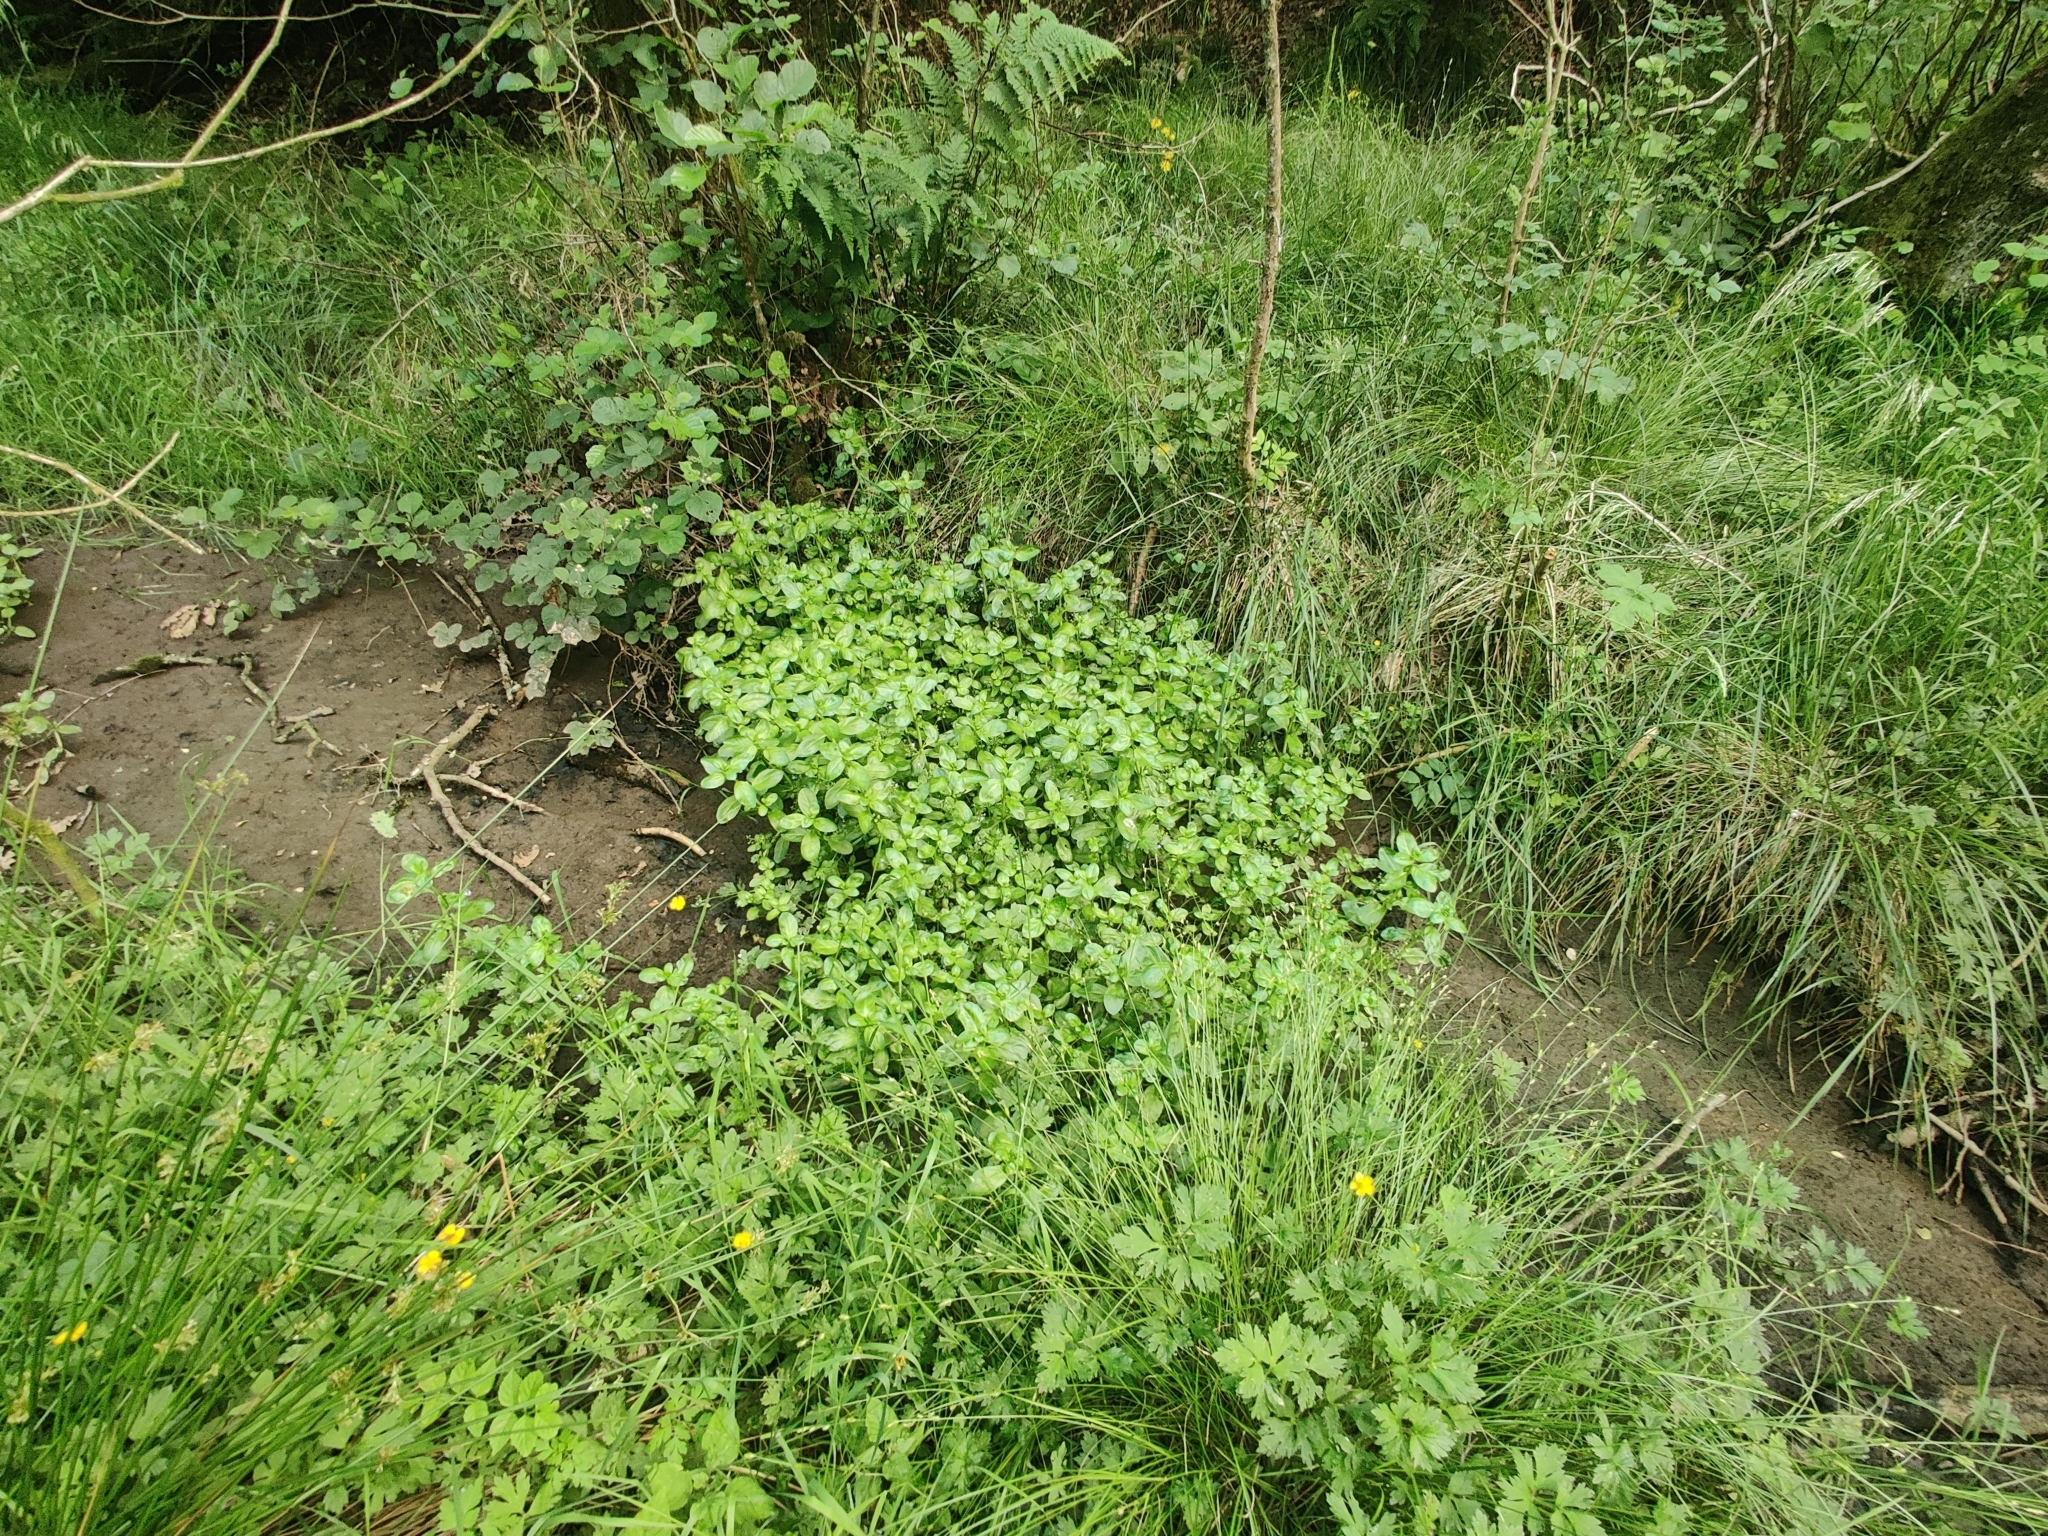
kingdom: Plantae
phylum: Tracheophyta
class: Magnoliopsida
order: Lamiales
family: Plantaginaceae
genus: Veronica
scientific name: Veronica beccabunga
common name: Brooklime
